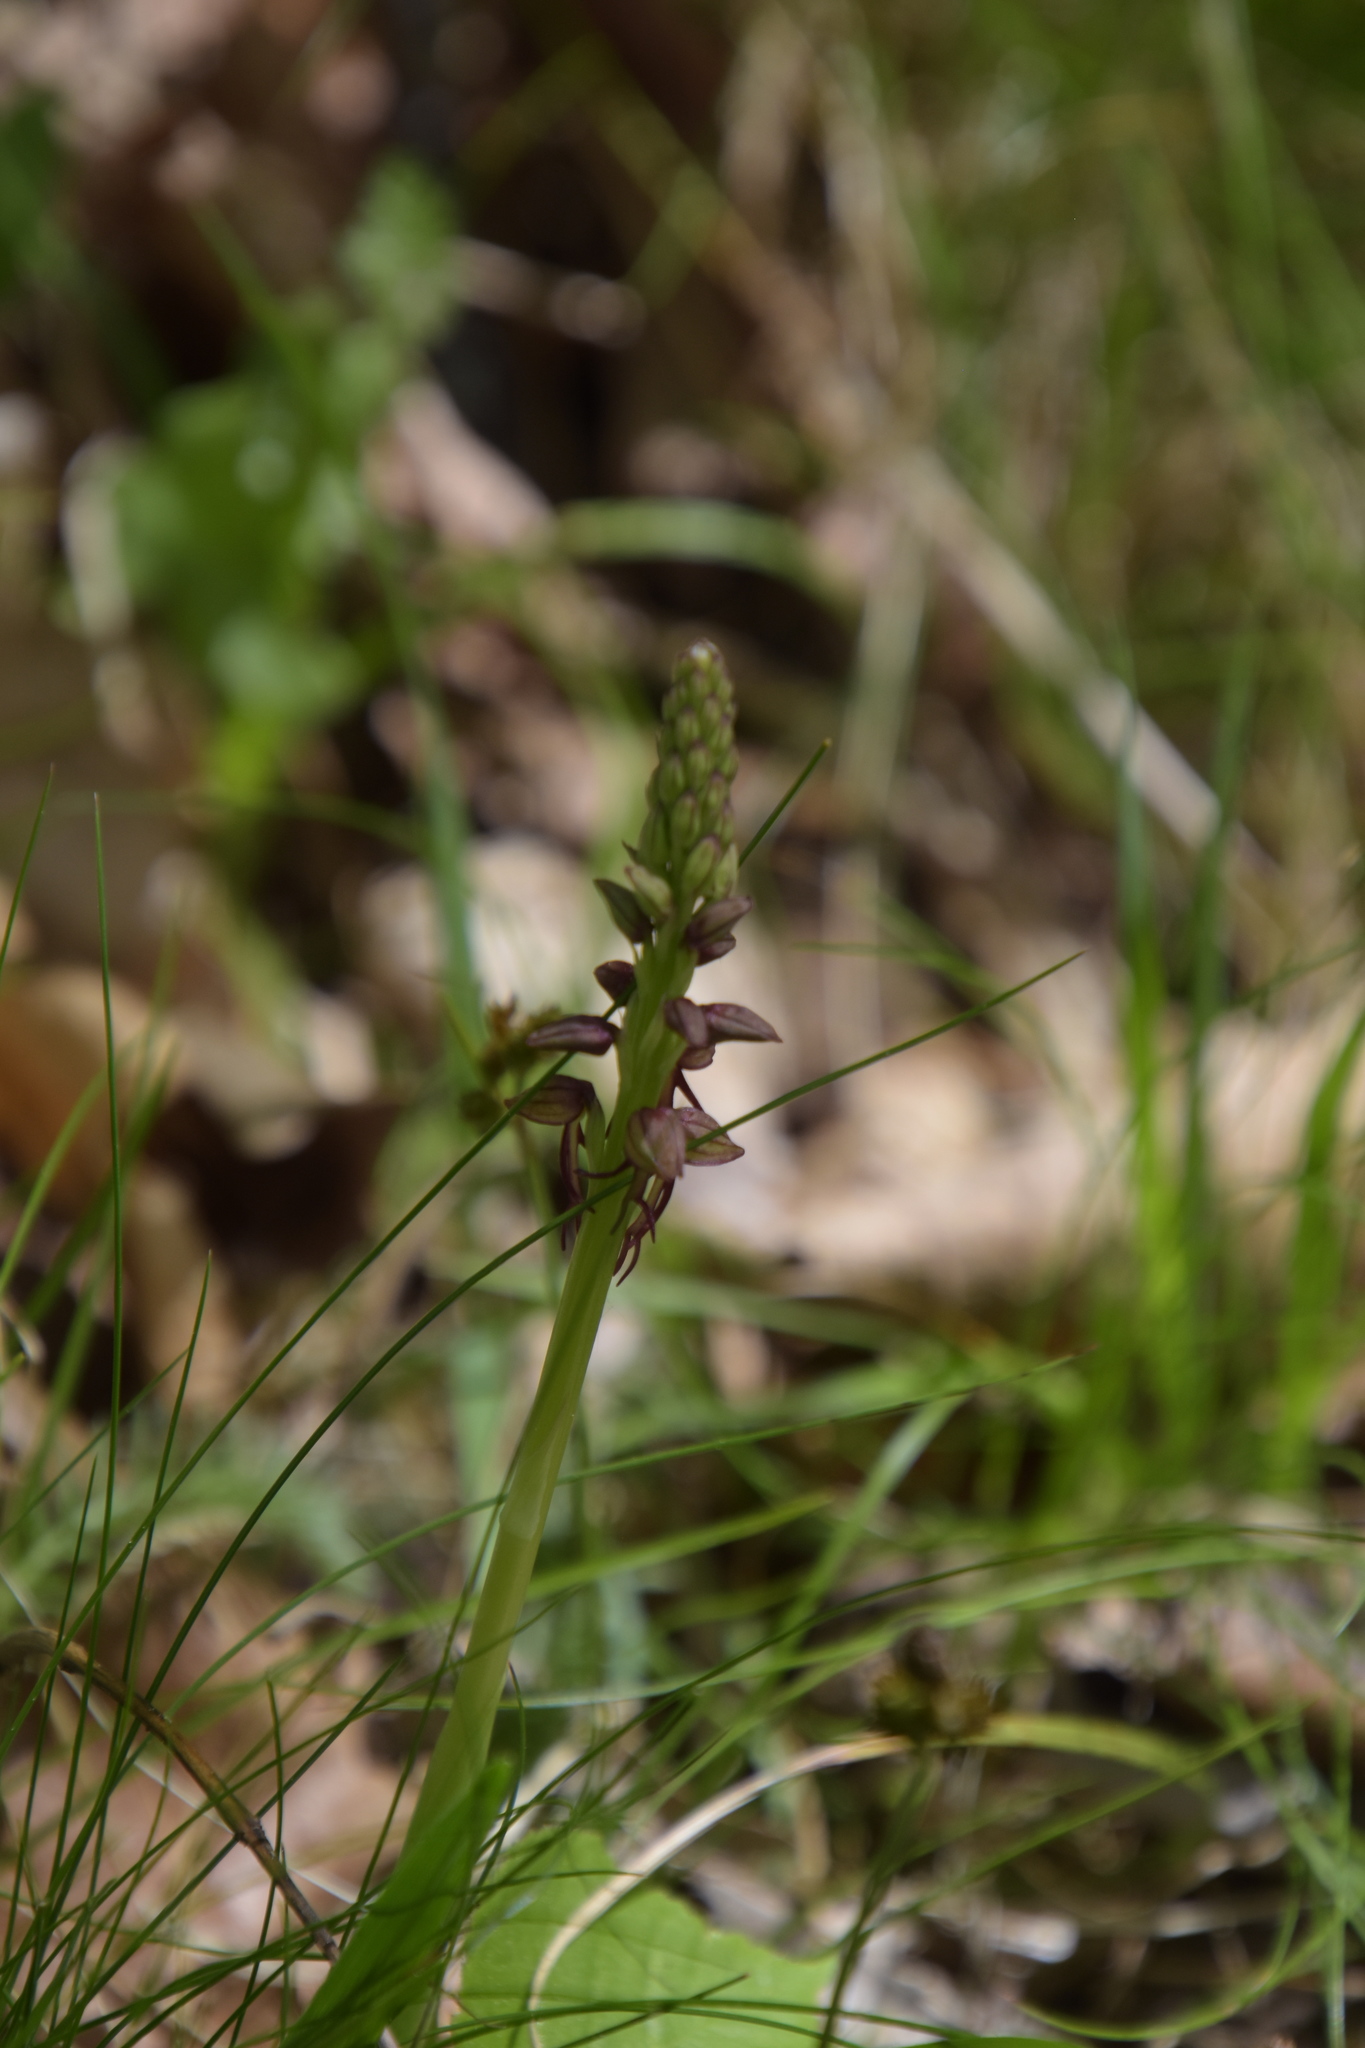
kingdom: Plantae
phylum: Tracheophyta
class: Liliopsida
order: Asparagales
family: Orchidaceae
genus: Orchis
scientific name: Orchis anthropophora
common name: Man orchid
